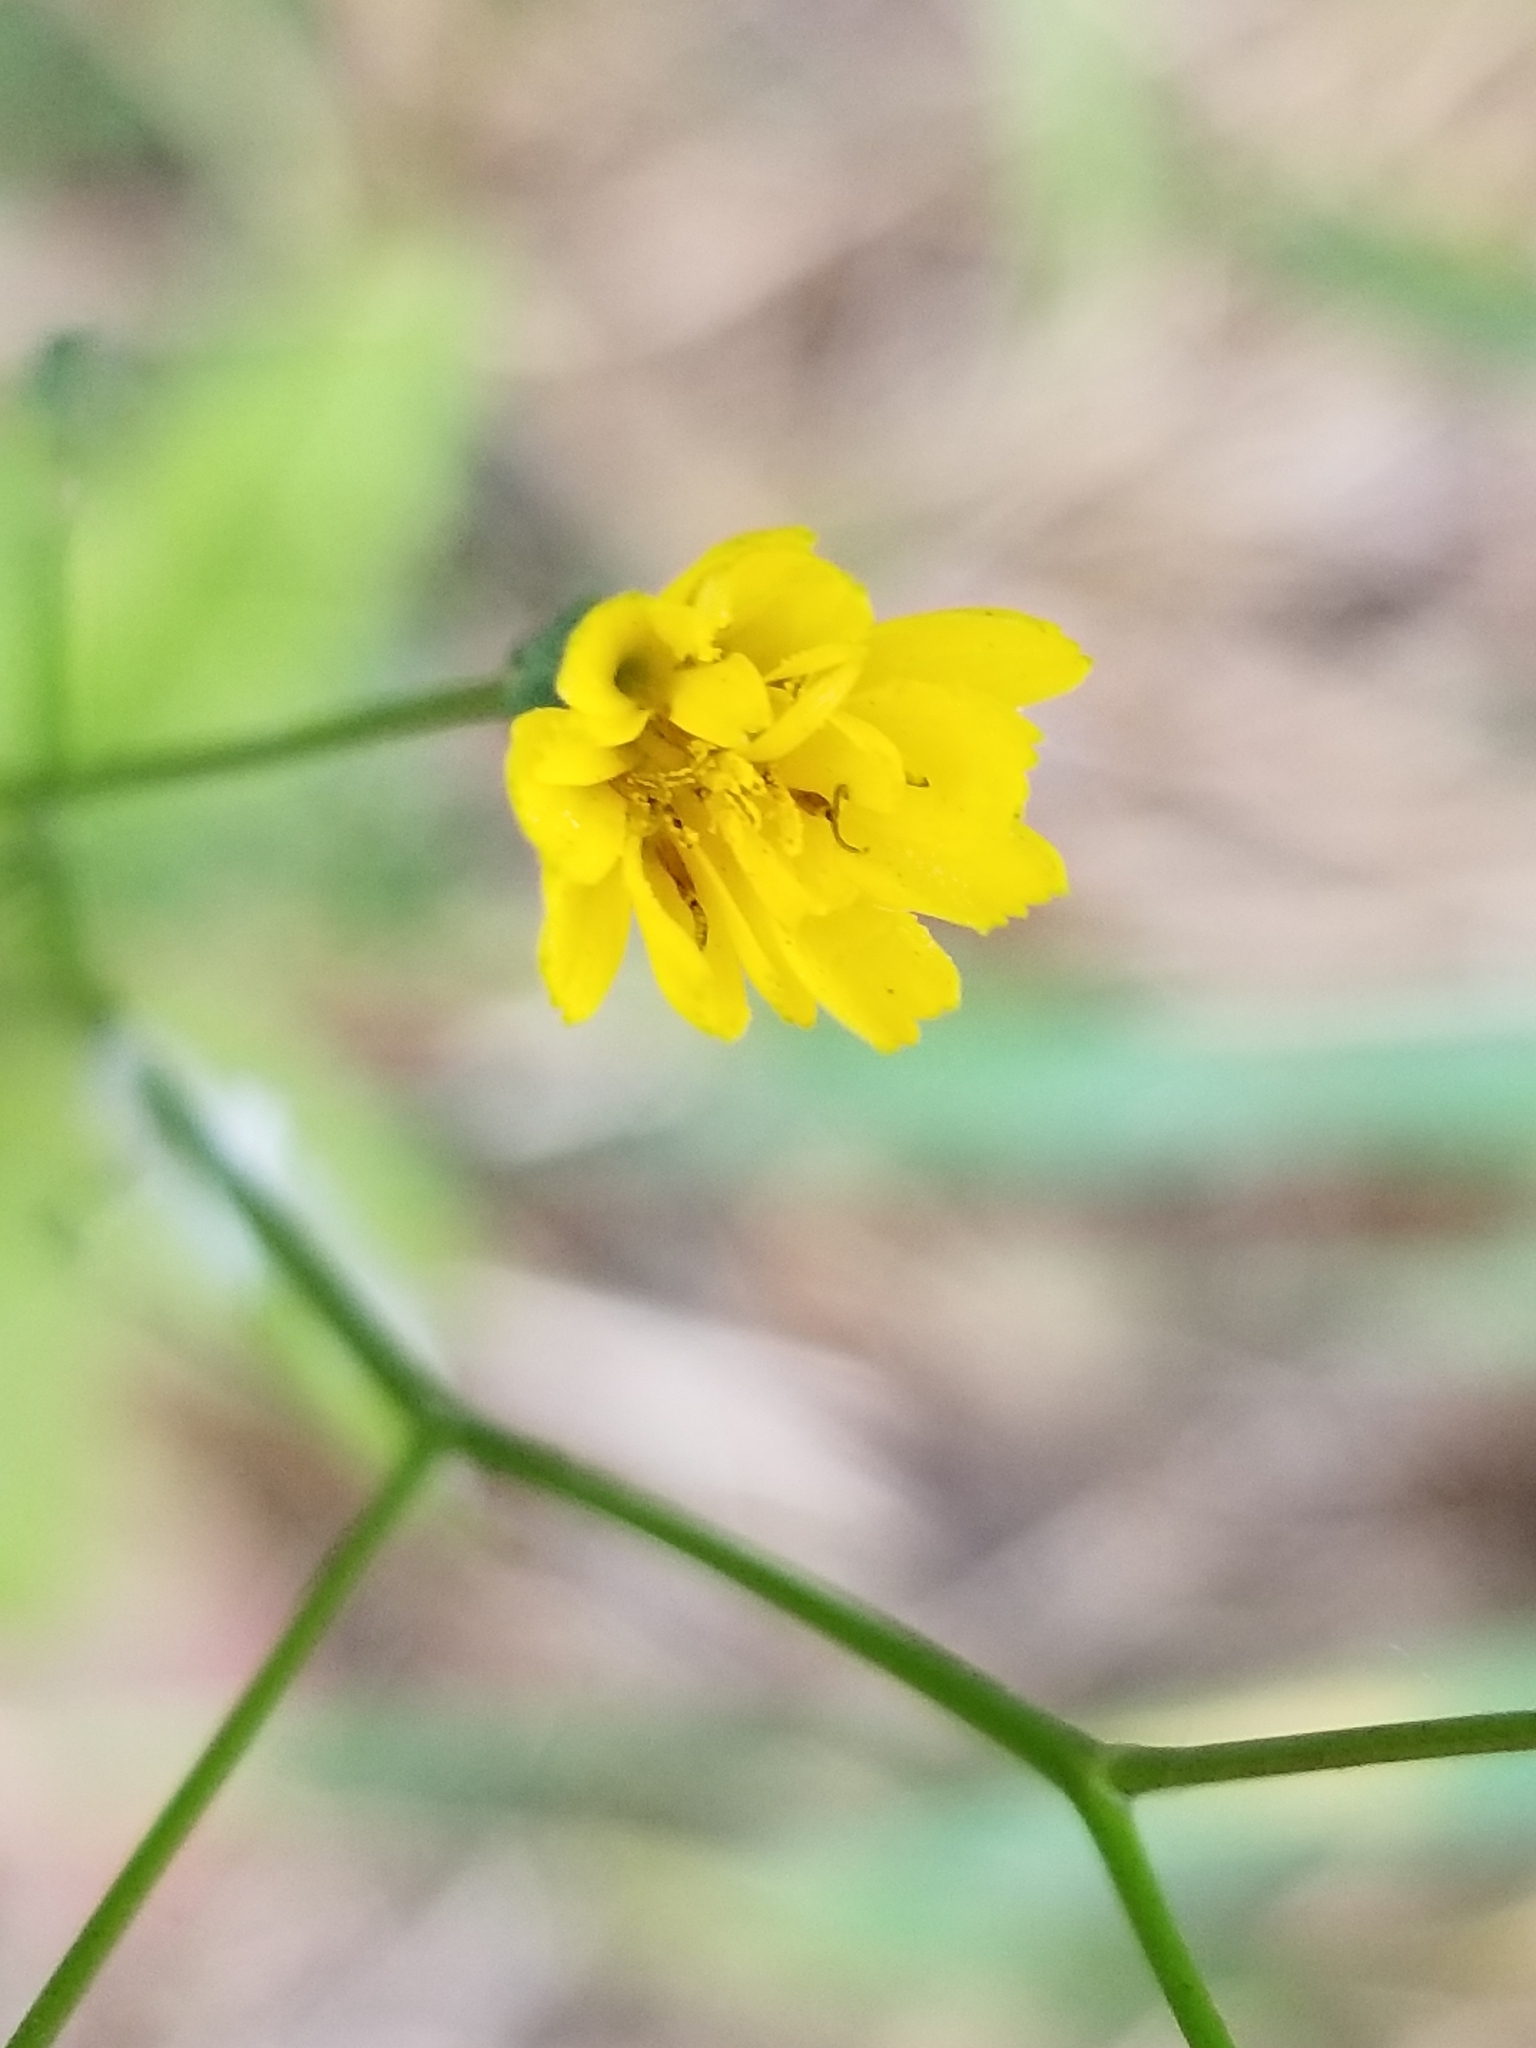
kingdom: Plantae
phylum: Tracheophyta
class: Magnoliopsida
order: Asterales
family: Asteraceae
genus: Lapsana
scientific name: Lapsana communis
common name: Nipplewort
